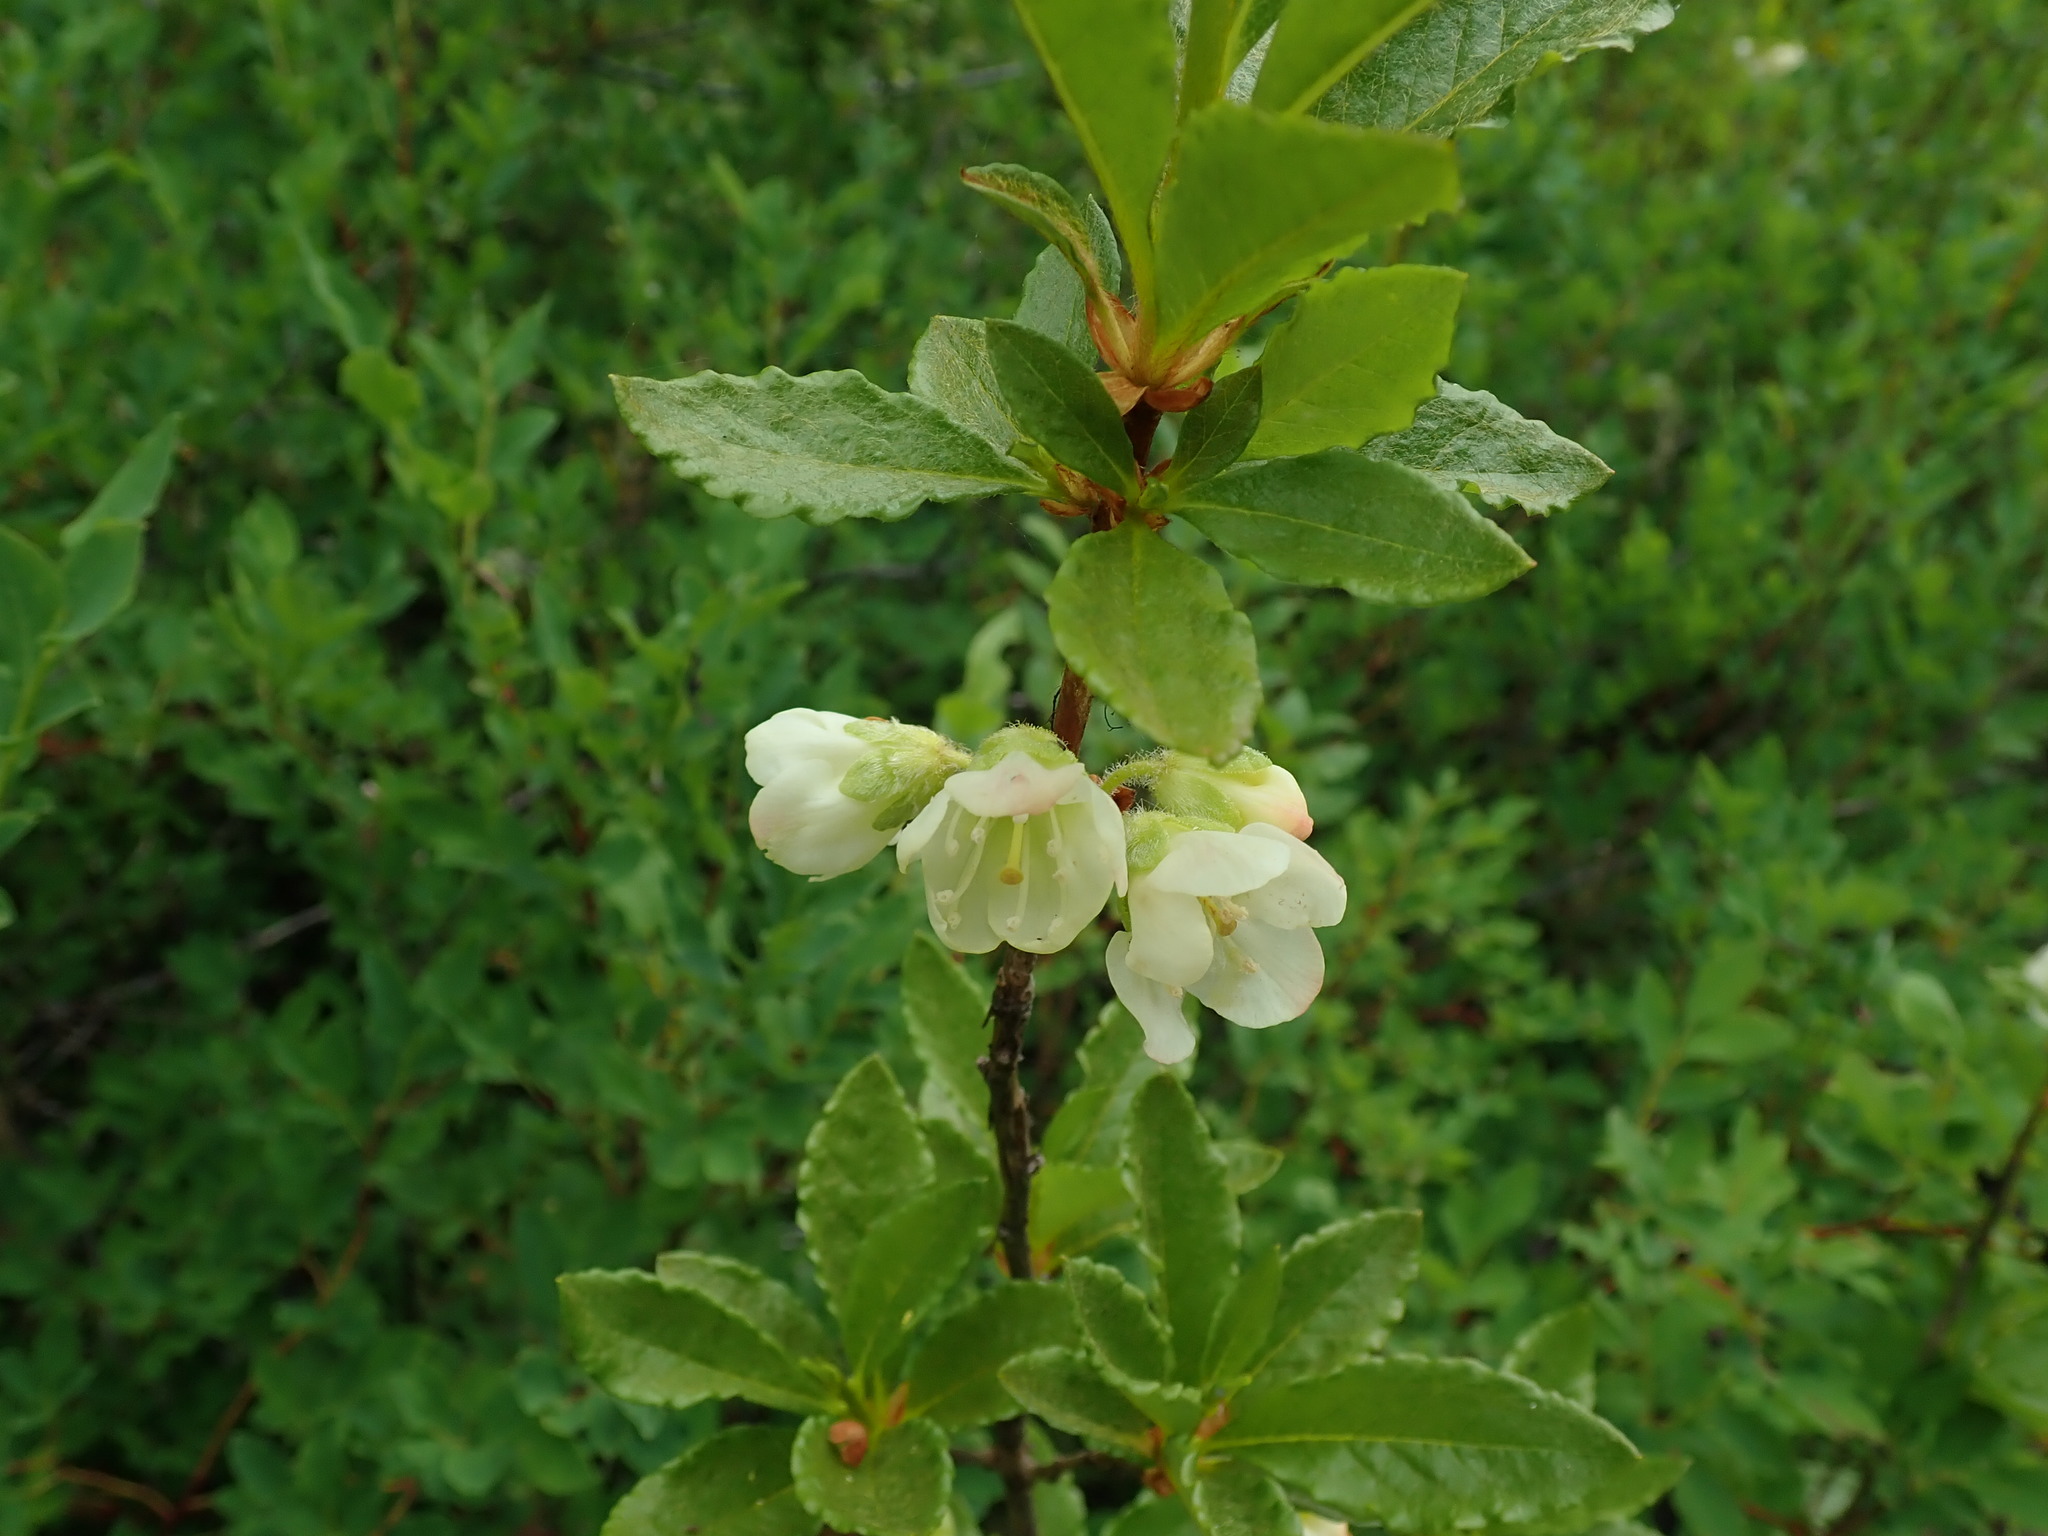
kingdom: Plantae
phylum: Tracheophyta
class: Magnoliopsida
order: Ericales
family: Ericaceae
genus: Rhododendron
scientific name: Rhododendron albiflorum
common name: White rhododendron
